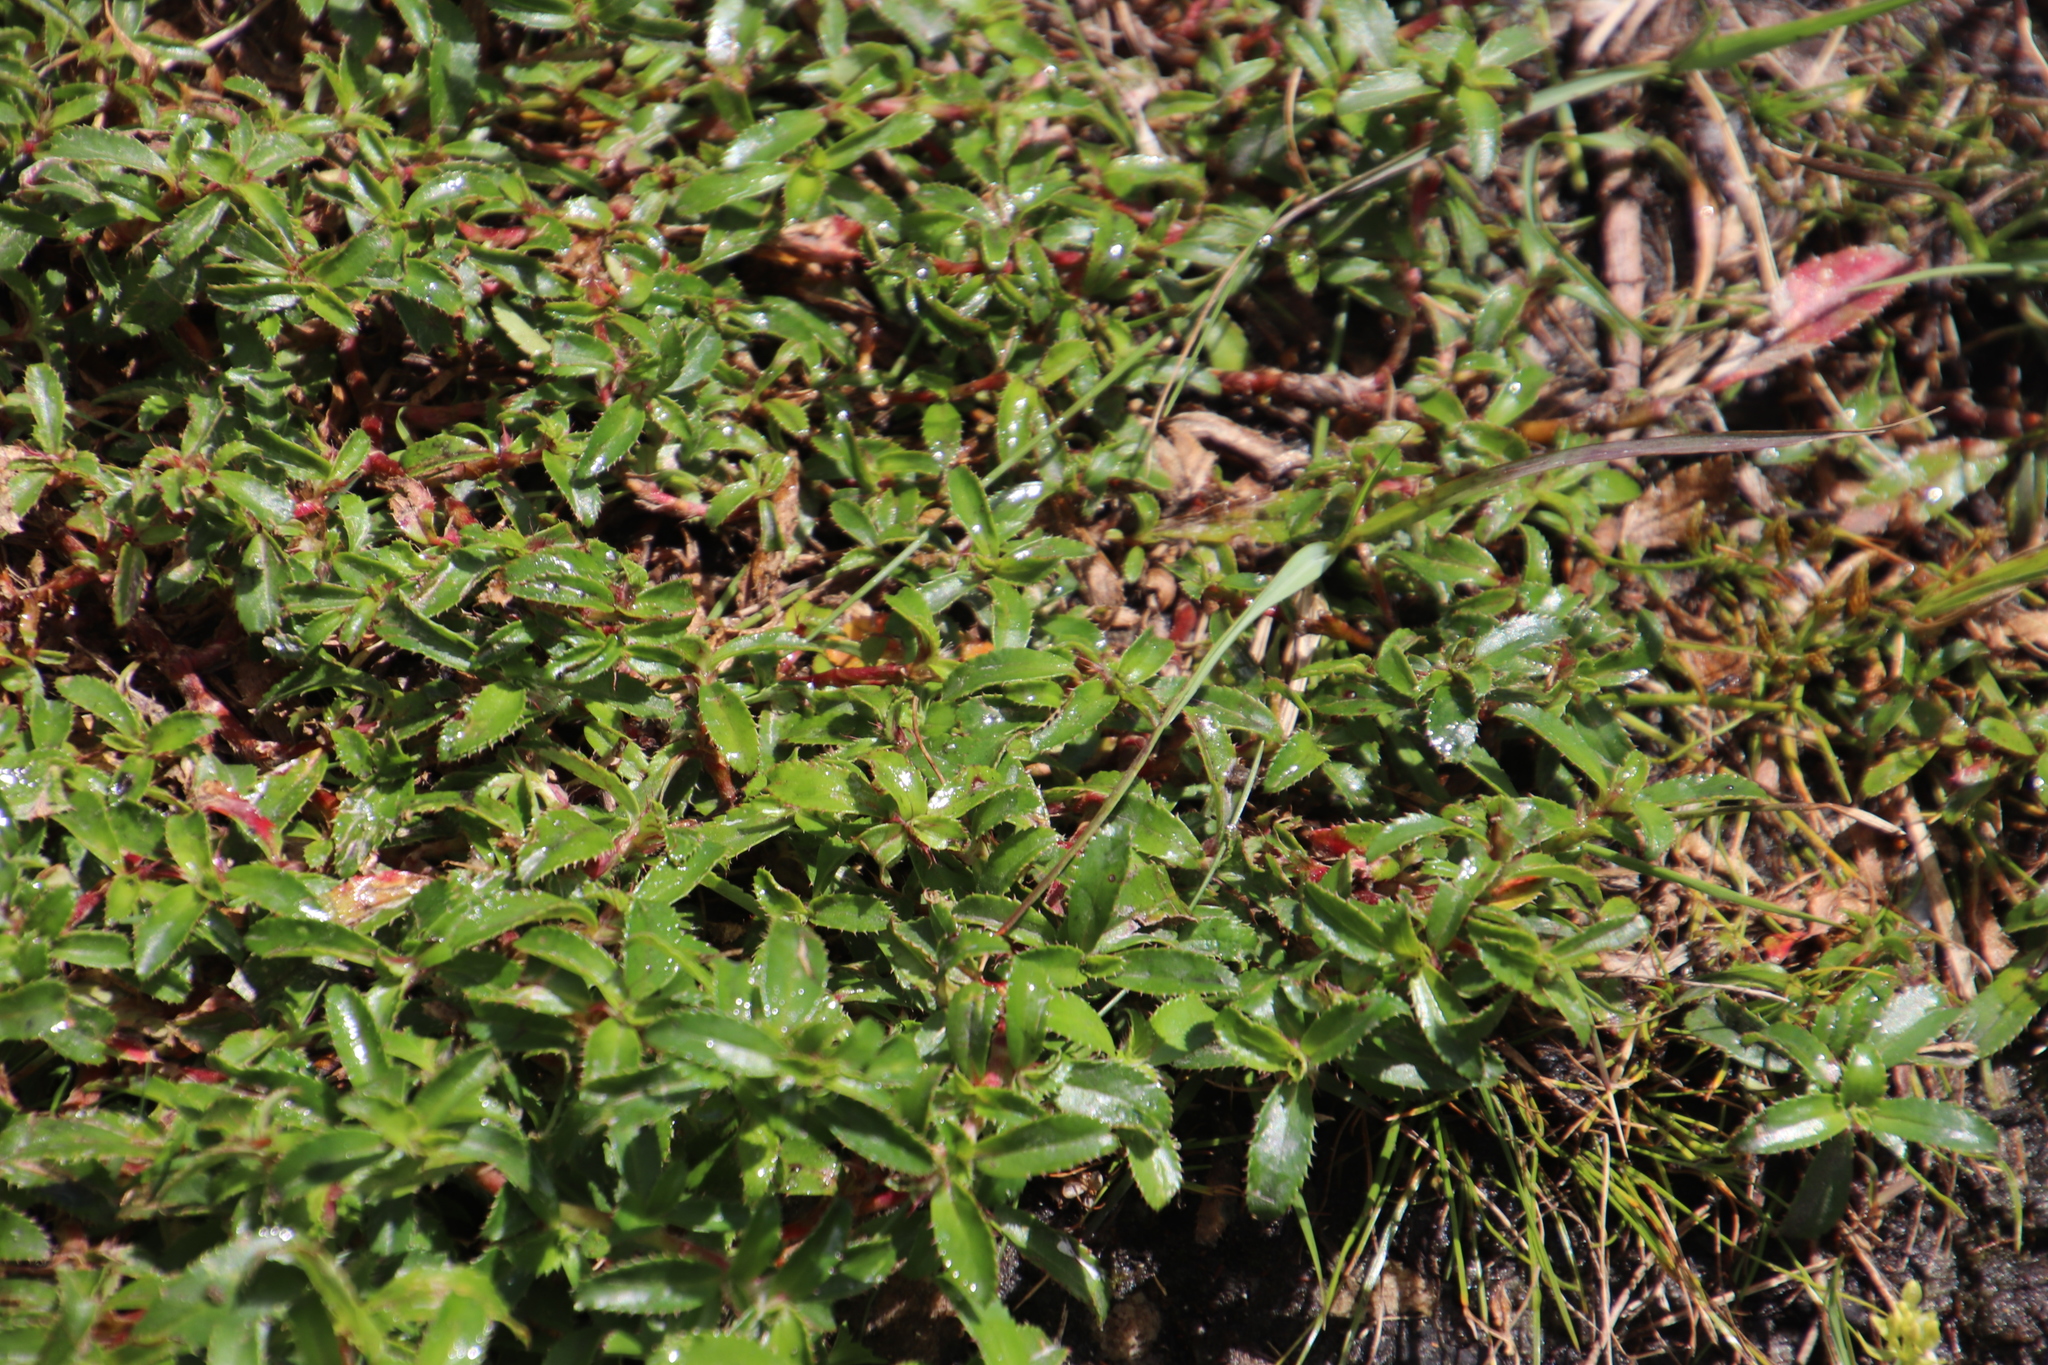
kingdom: Plantae
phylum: Tracheophyta
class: Magnoliopsida
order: Rosales
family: Rosaceae
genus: Cliffortia
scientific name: Cliffortia ferruginea
